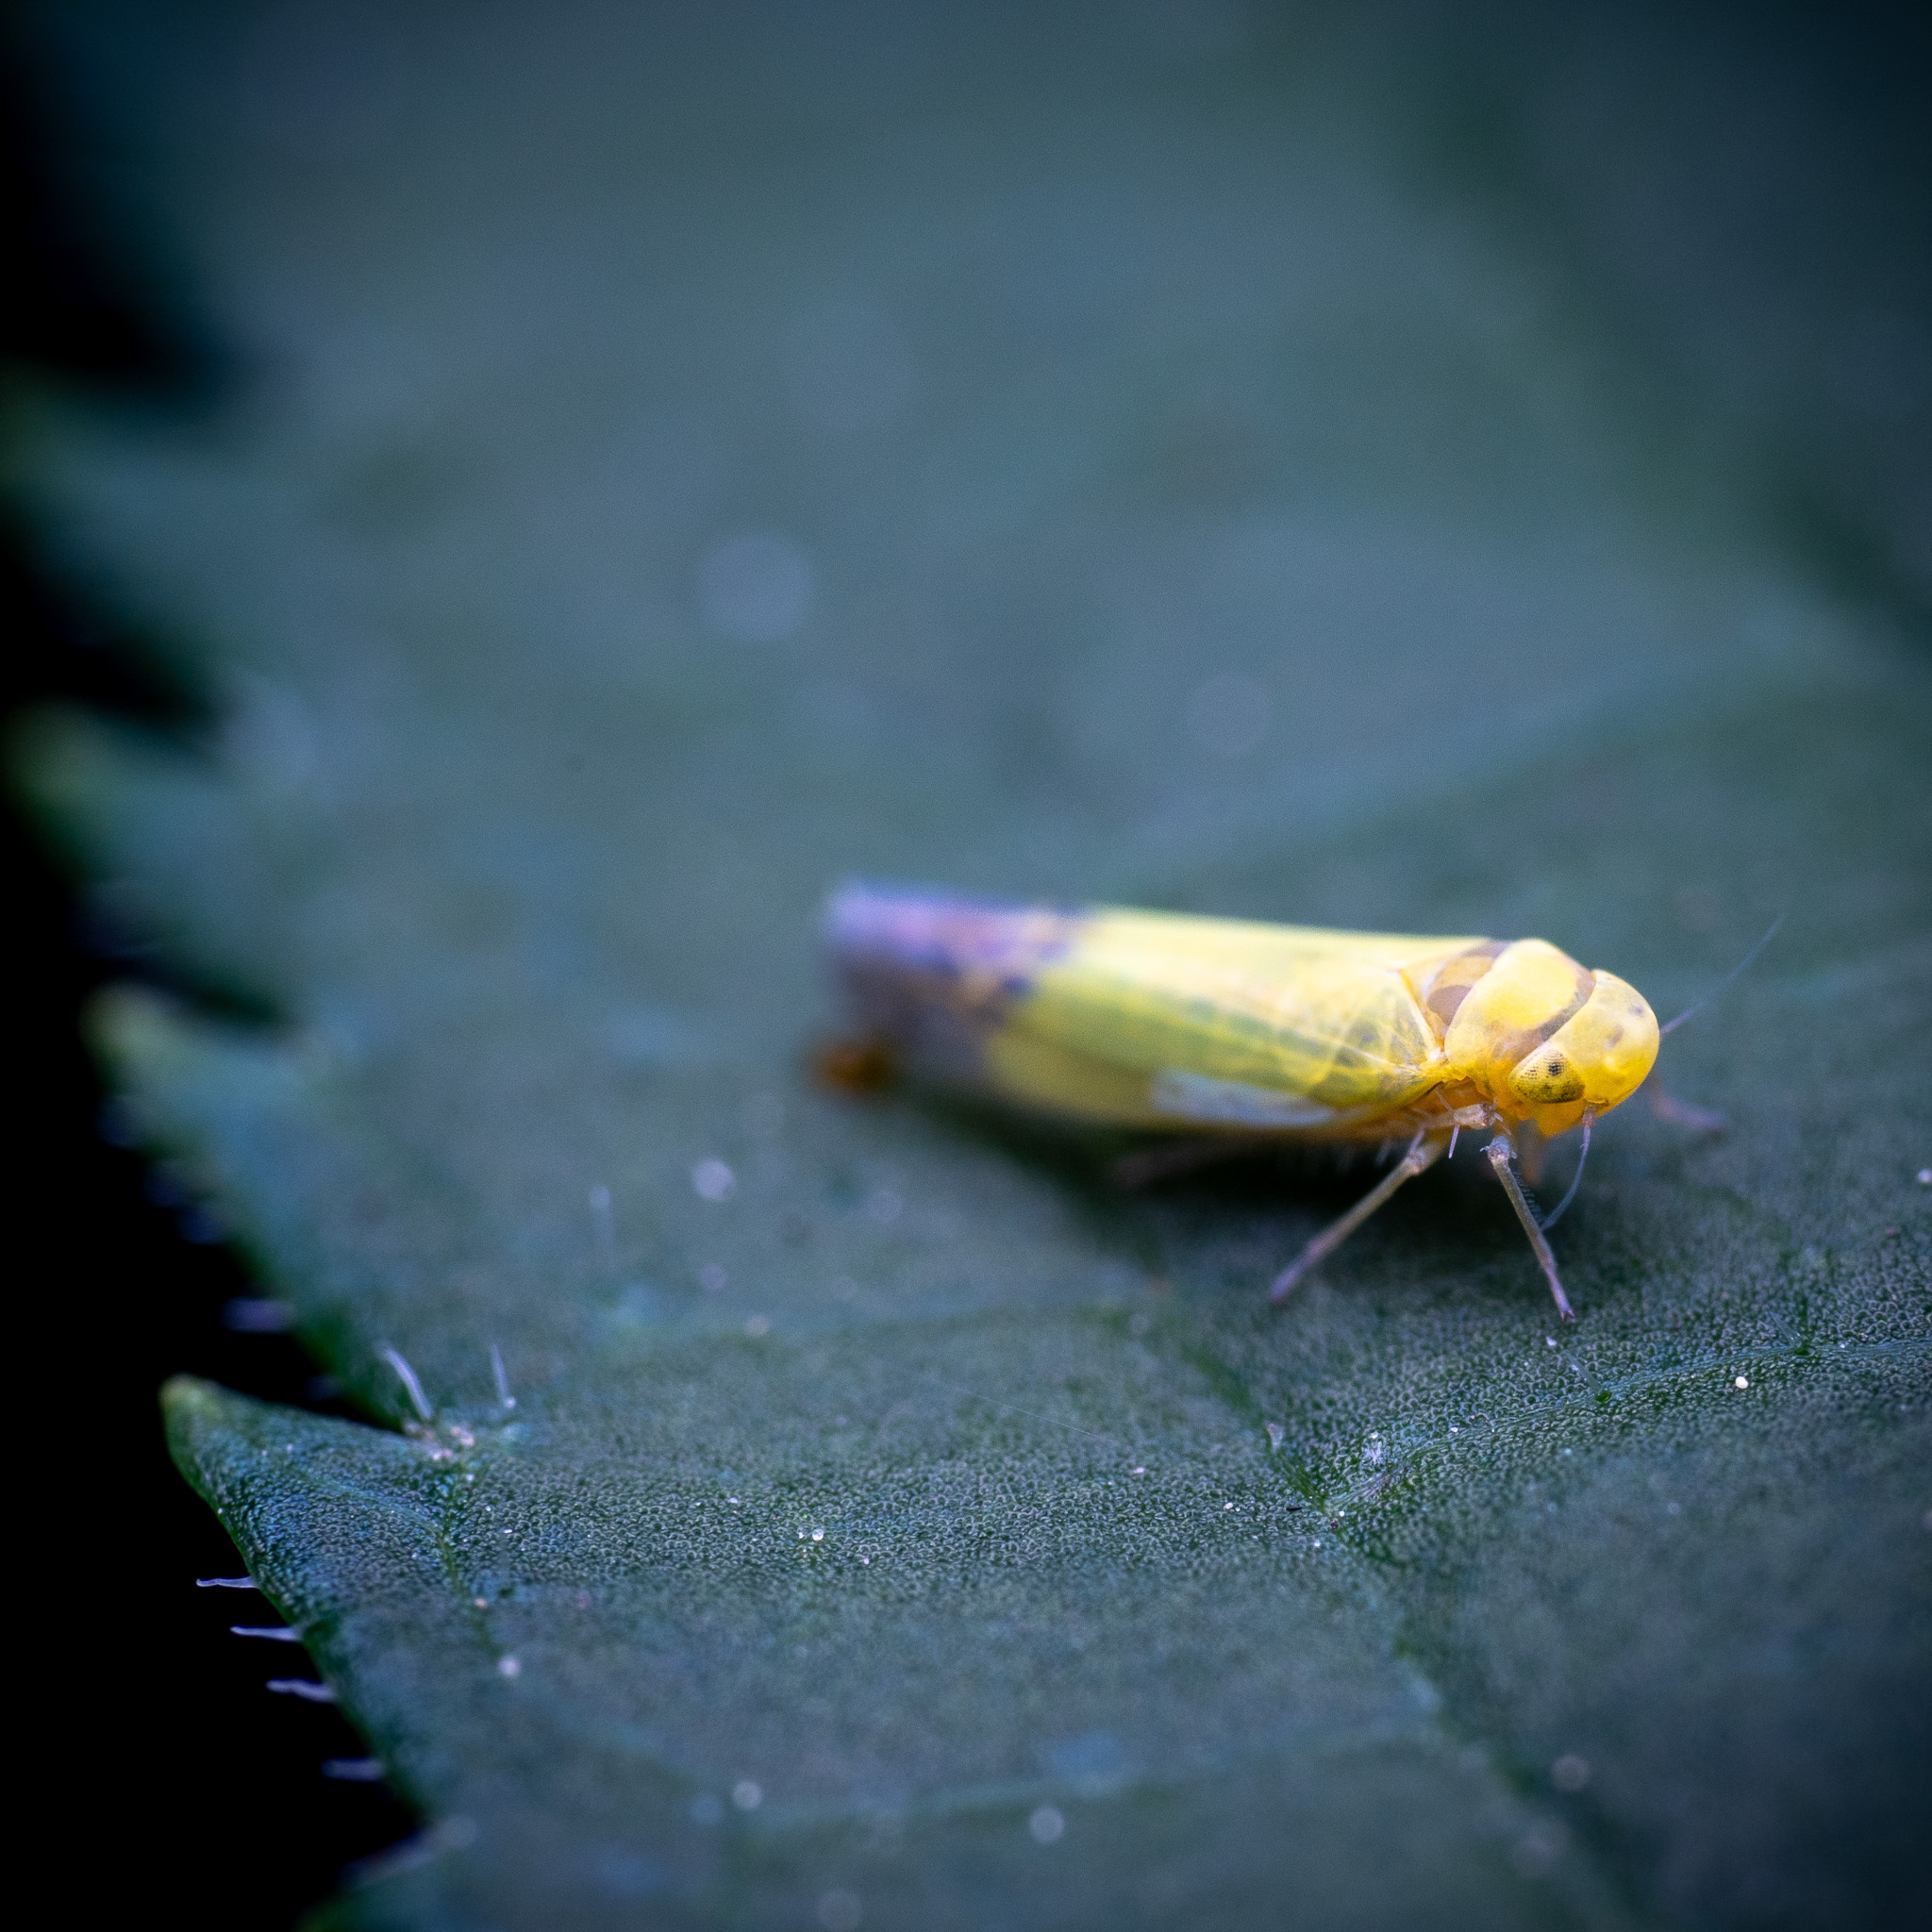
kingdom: Animalia
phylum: Arthropoda
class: Insecta
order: Hemiptera
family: Cicadellidae
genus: Eupteryx
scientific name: Eupteryx filicum
